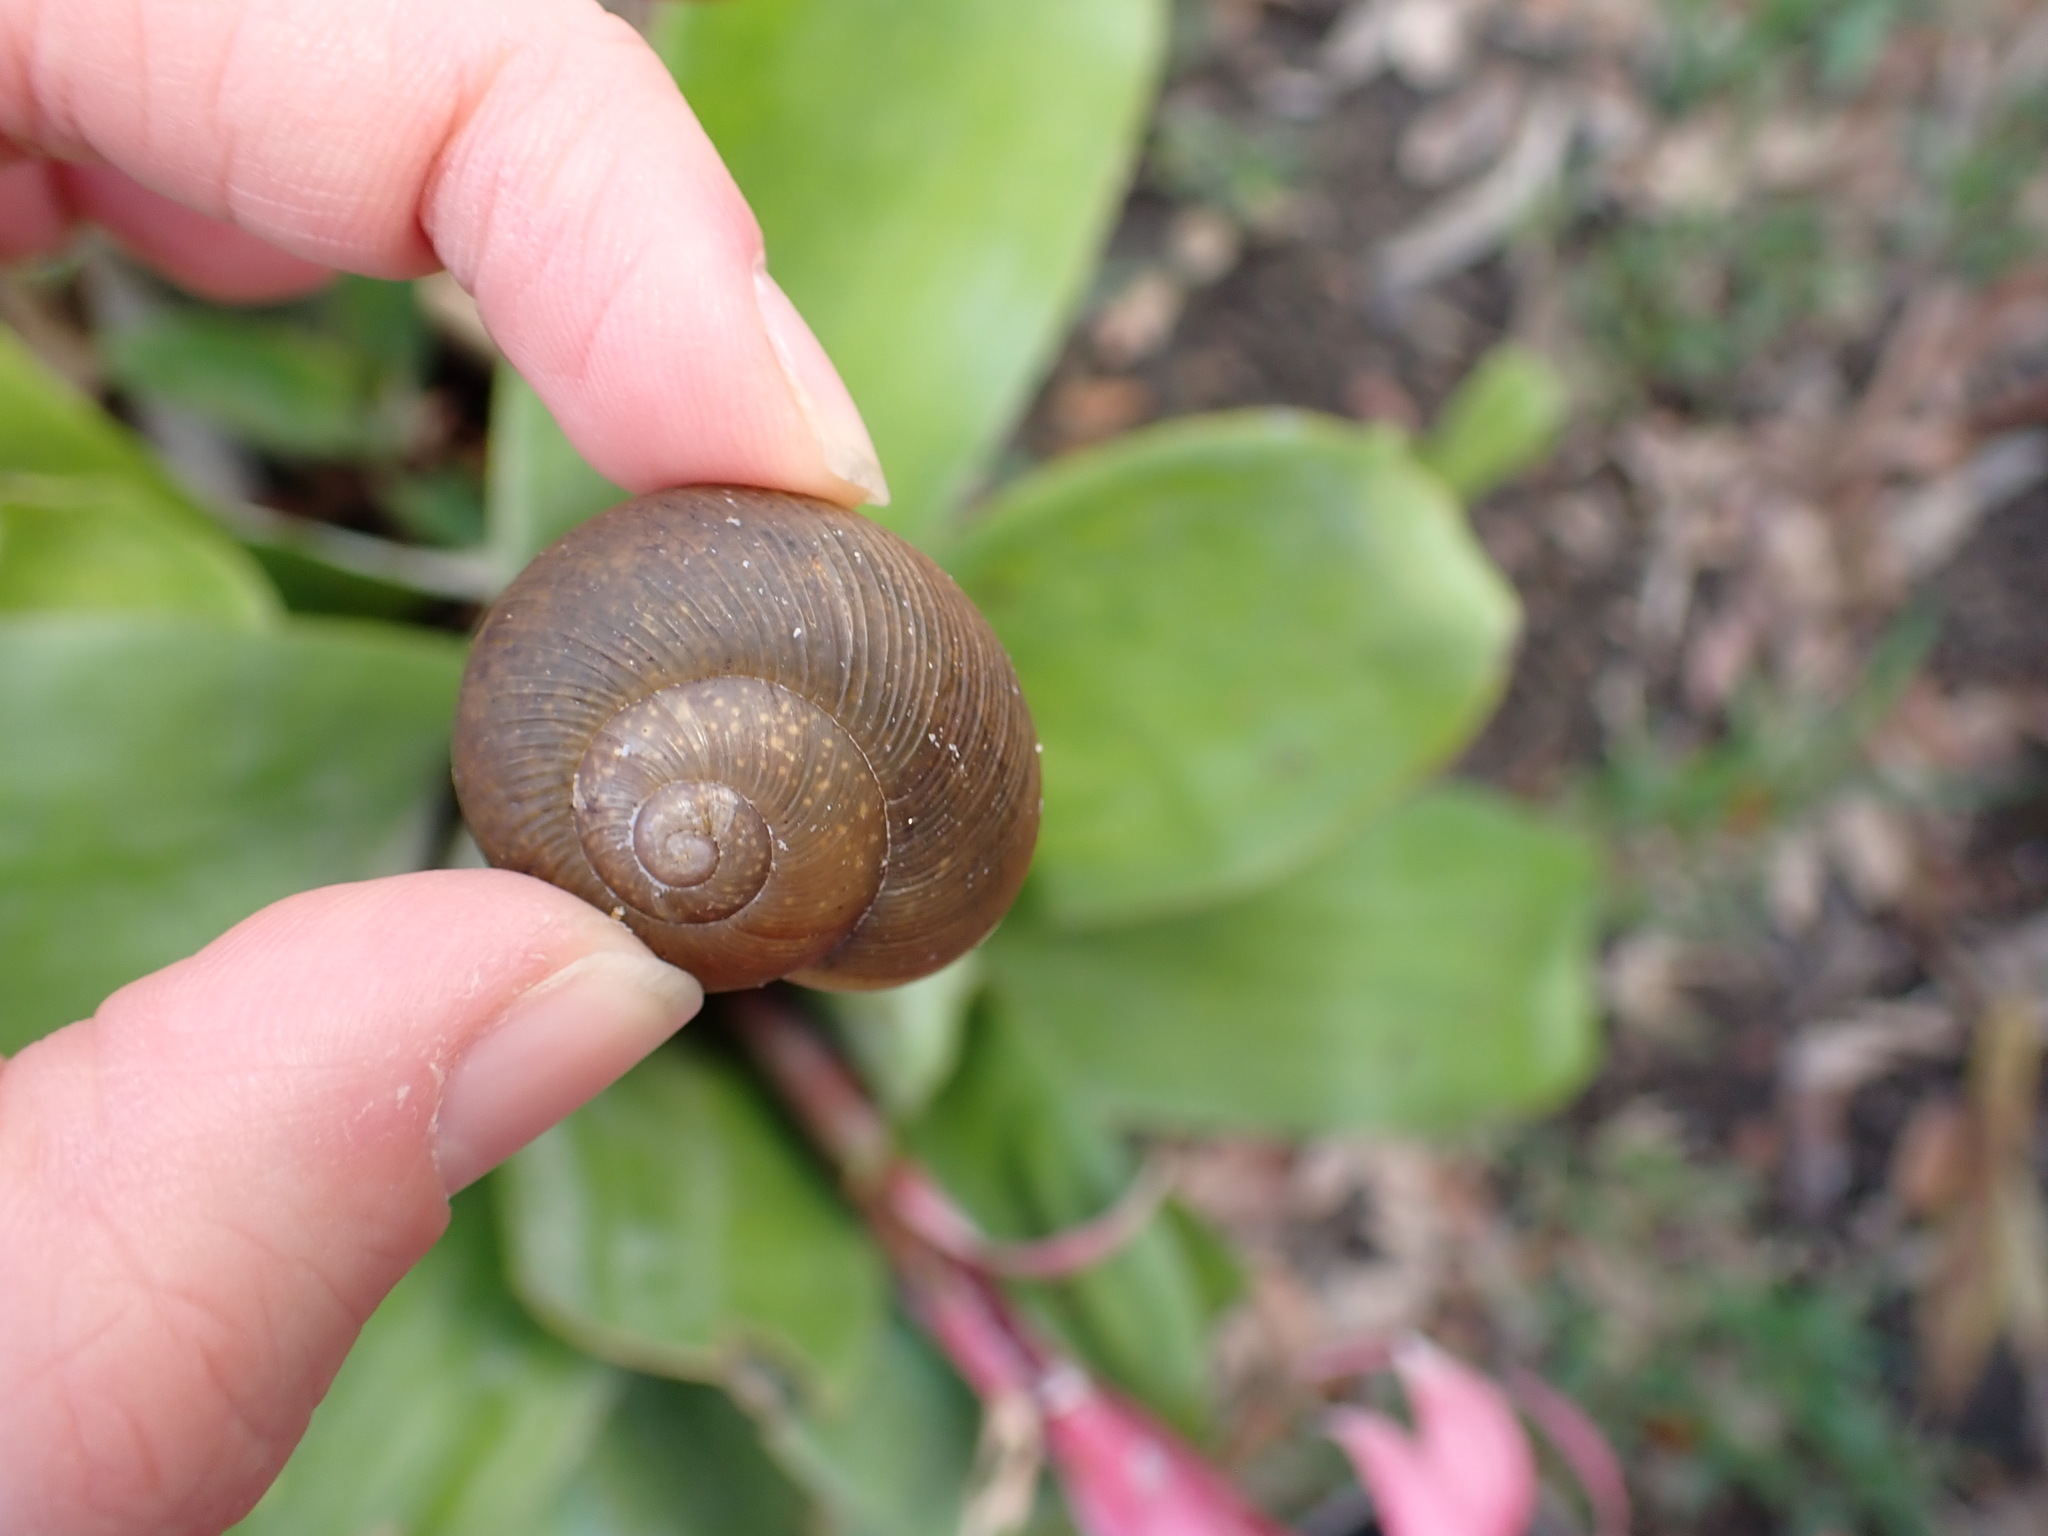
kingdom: Animalia
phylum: Mollusca
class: Gastropoda
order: Stylommatophora
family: Zachrysiidae
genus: Zachrysia
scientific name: Zachrysia provisoria
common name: Garden zachrysia
